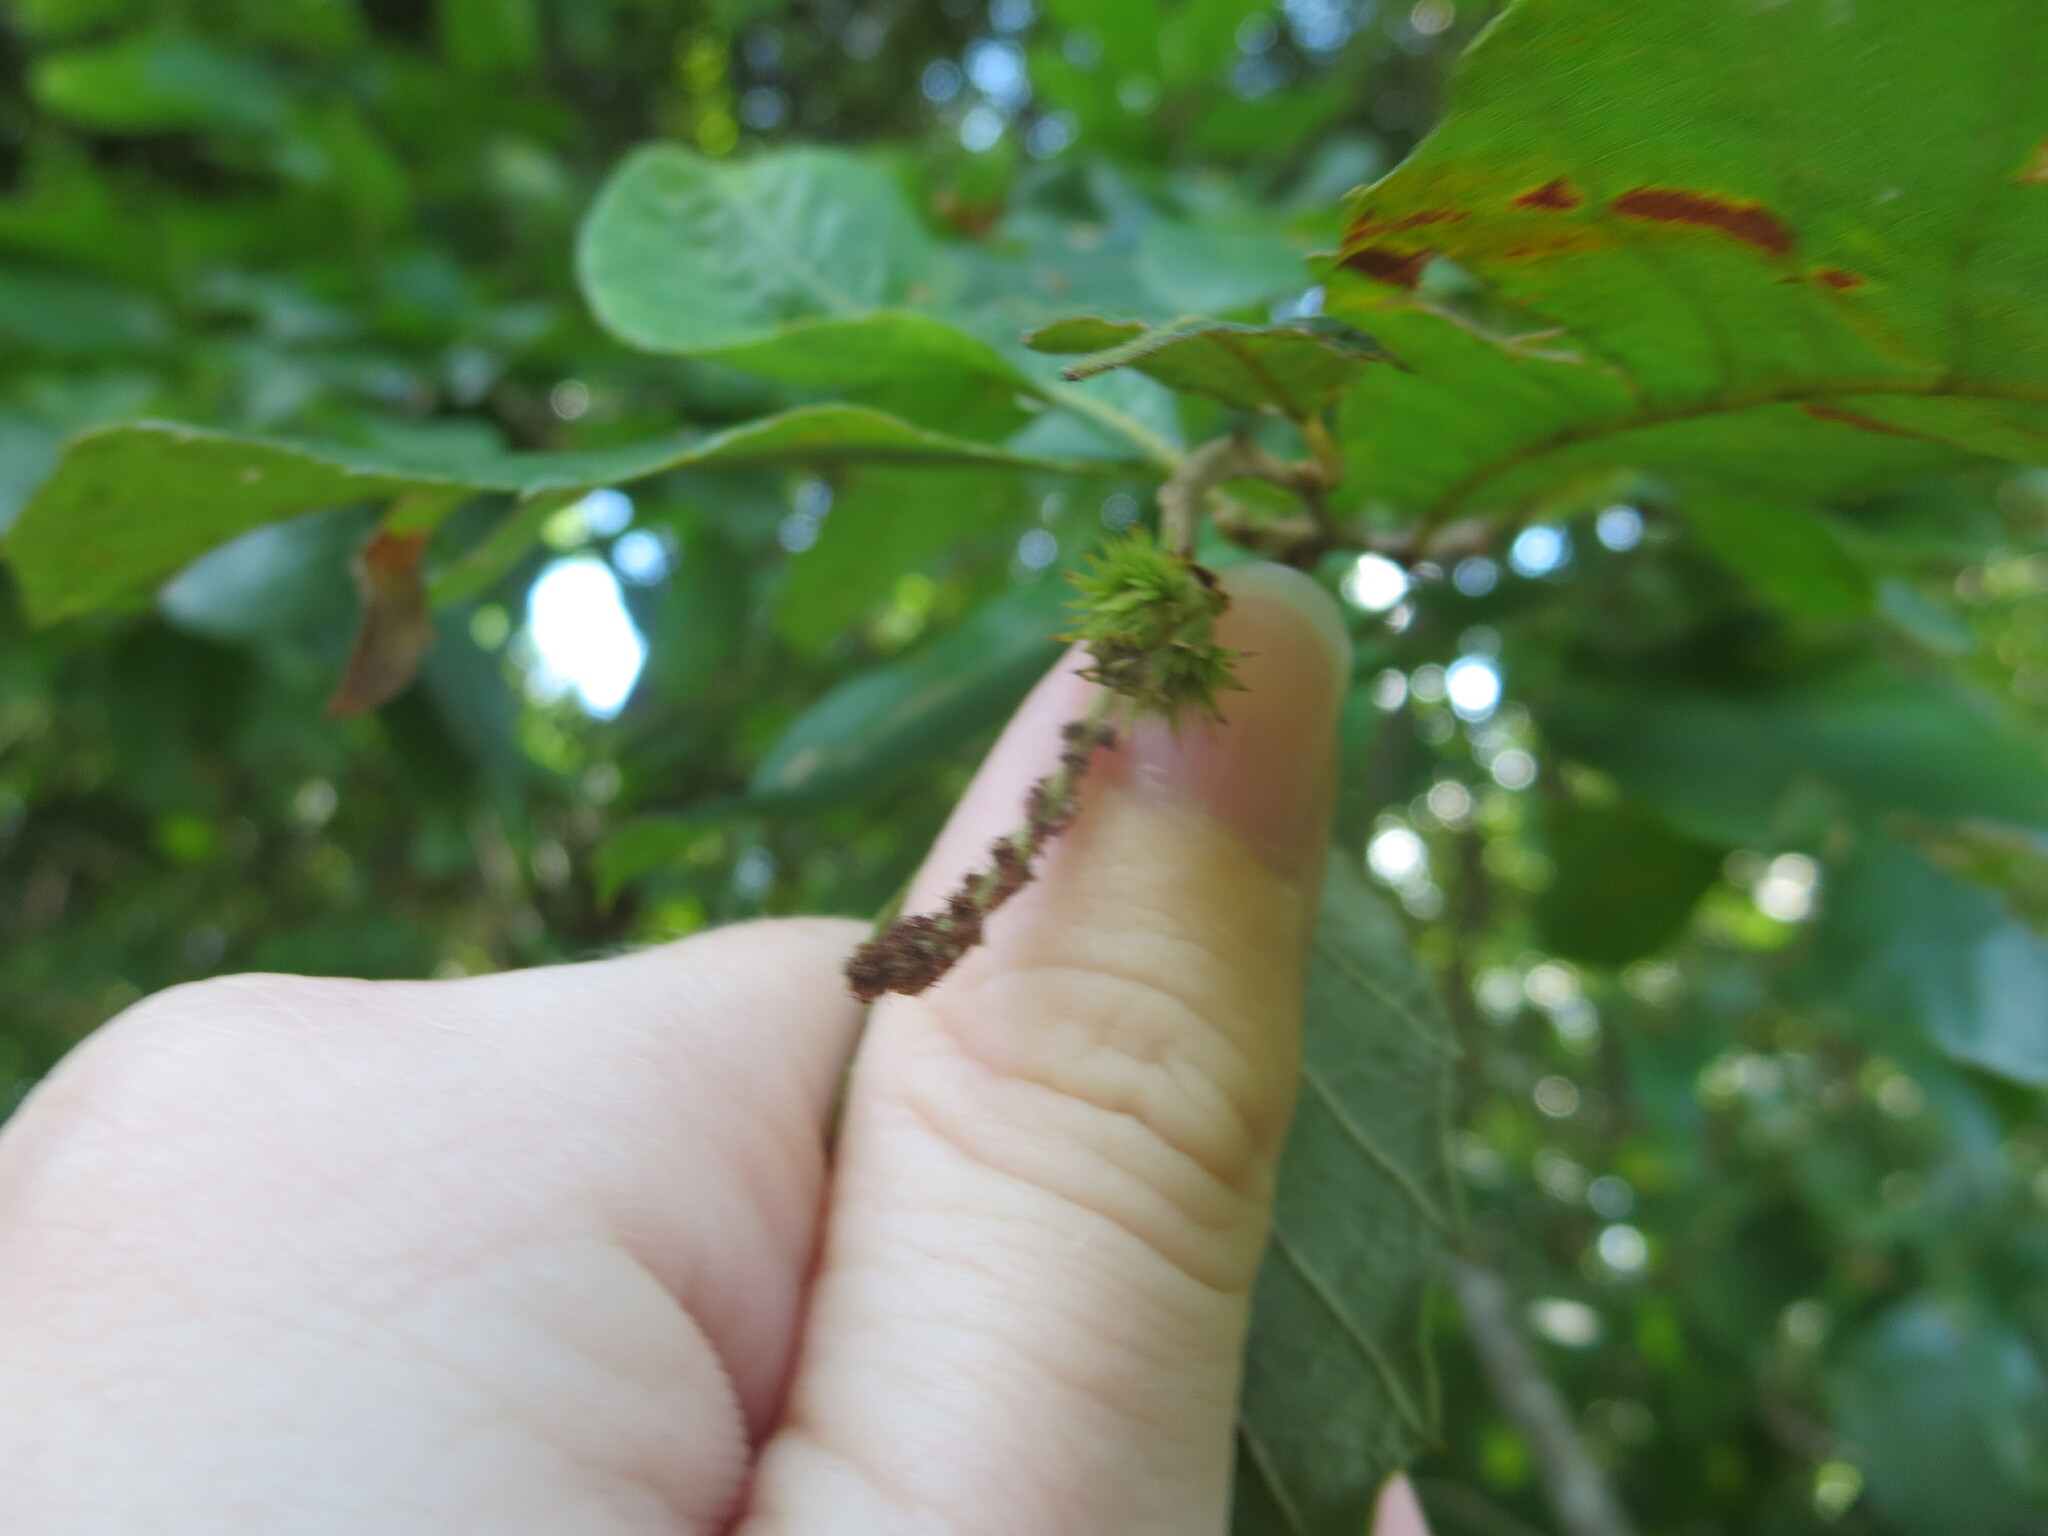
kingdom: Plantae
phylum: Tracheophyta
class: Magnoliopsida
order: Fagales
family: Fagaceae
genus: Castanea
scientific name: Castanea pumila
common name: Chinkapin
